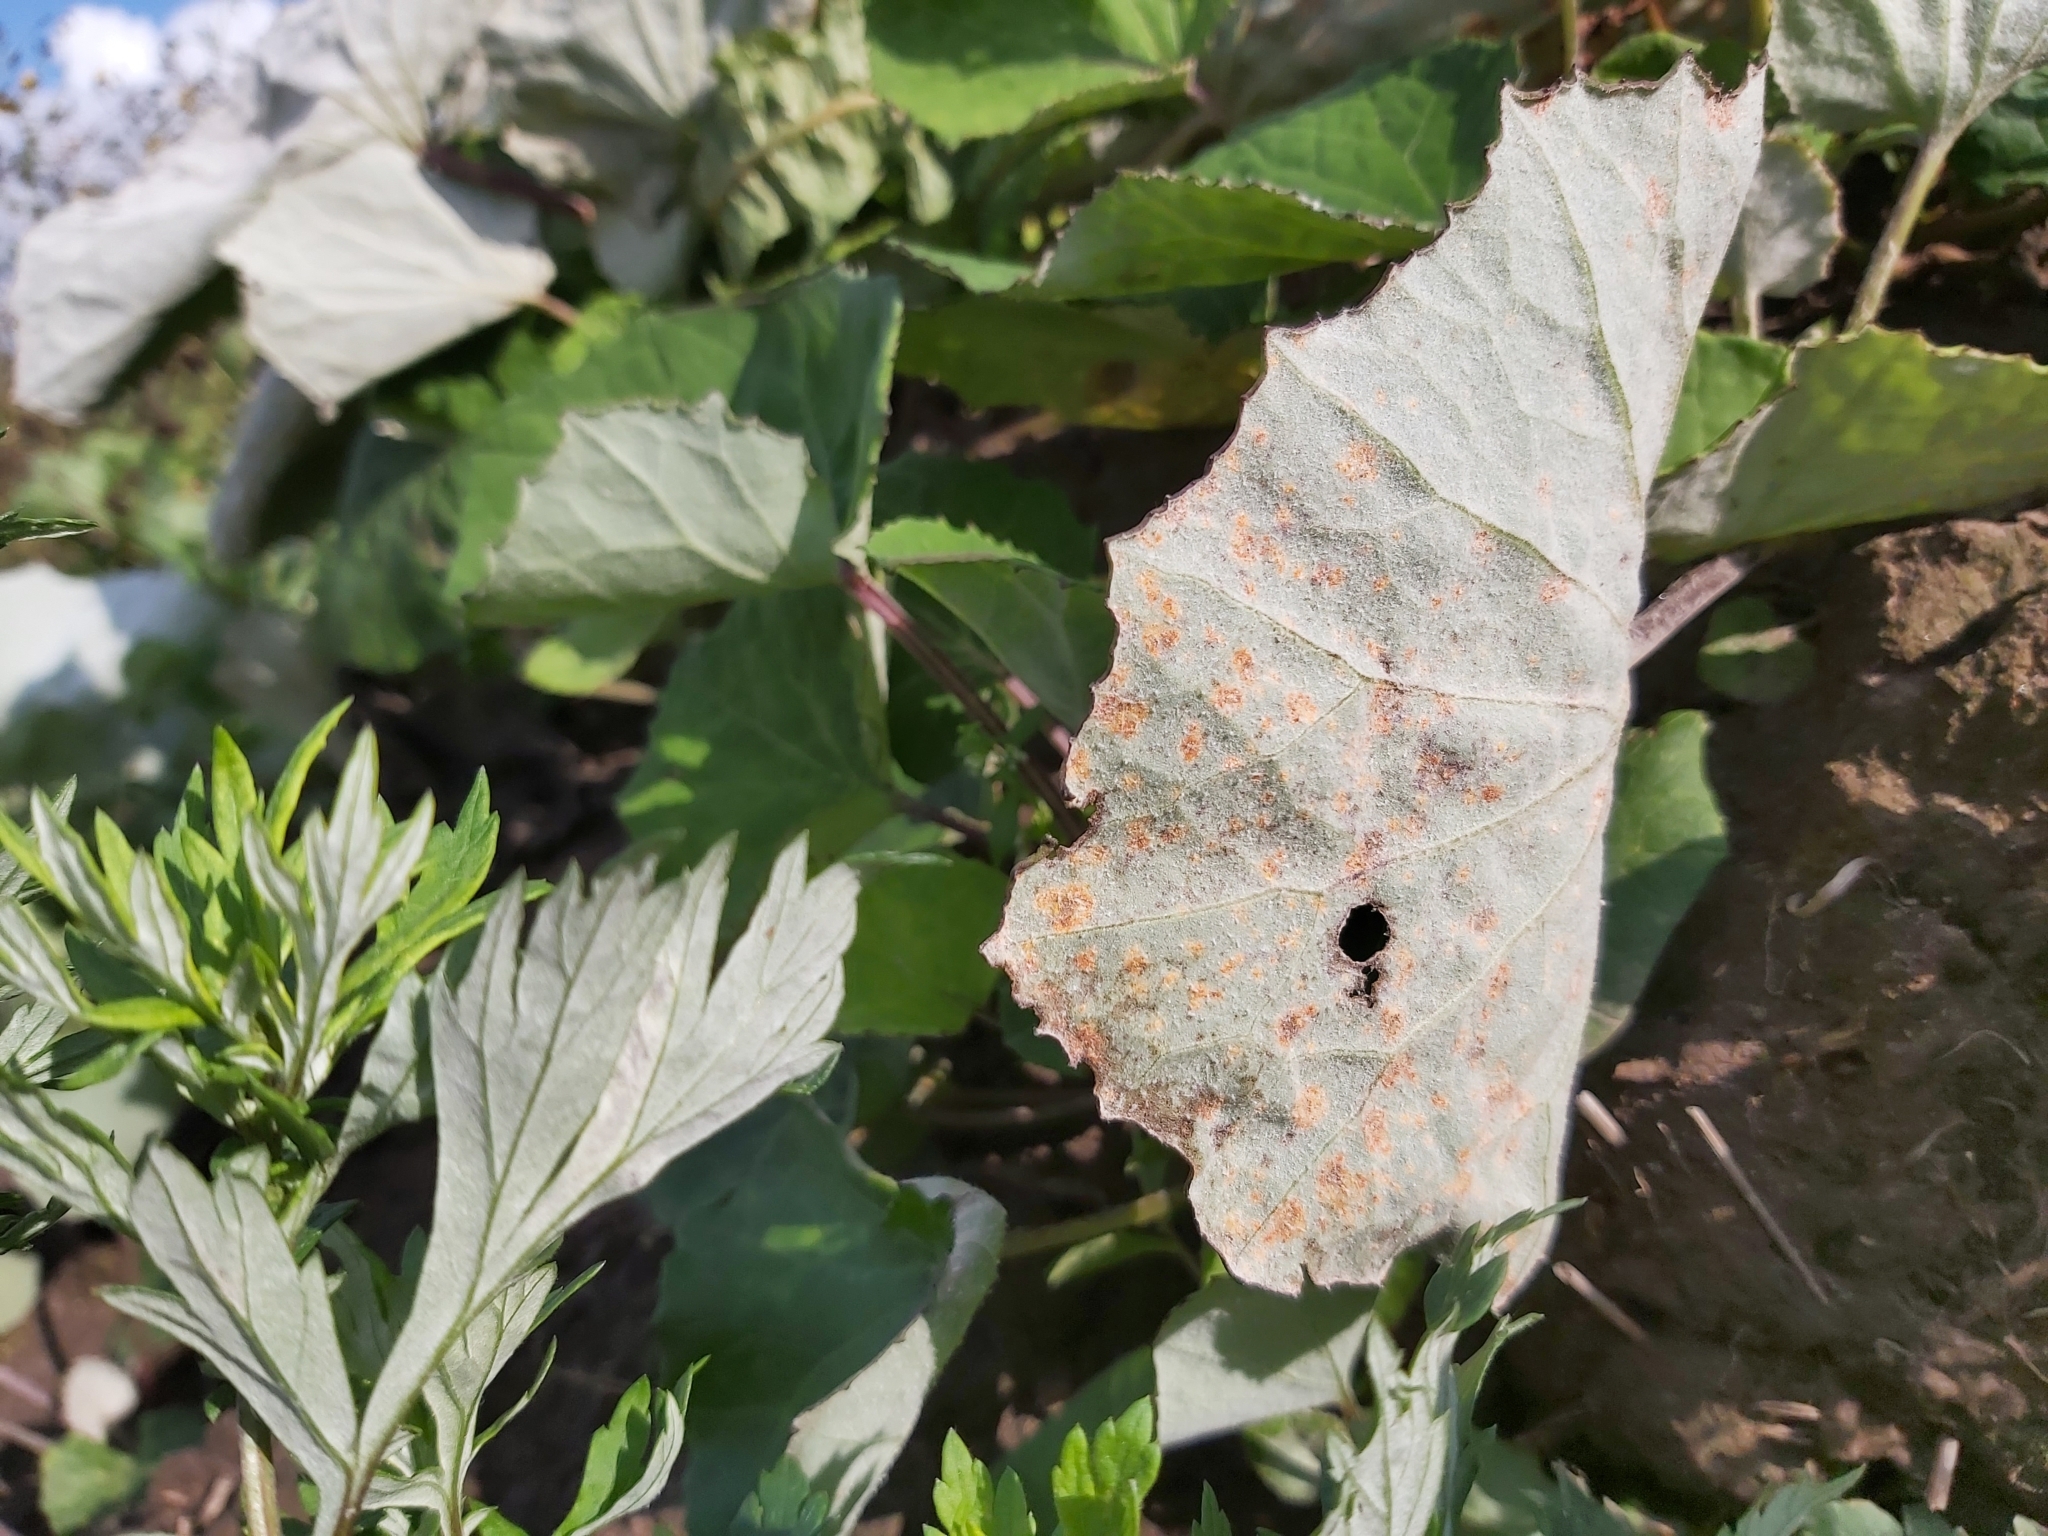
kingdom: Fungi
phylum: Basidiomycota
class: Pucciniomycetes
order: Pucciniales
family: Coleosporiaceae
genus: Coleosporium
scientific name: Coleosporium tussilaginis
